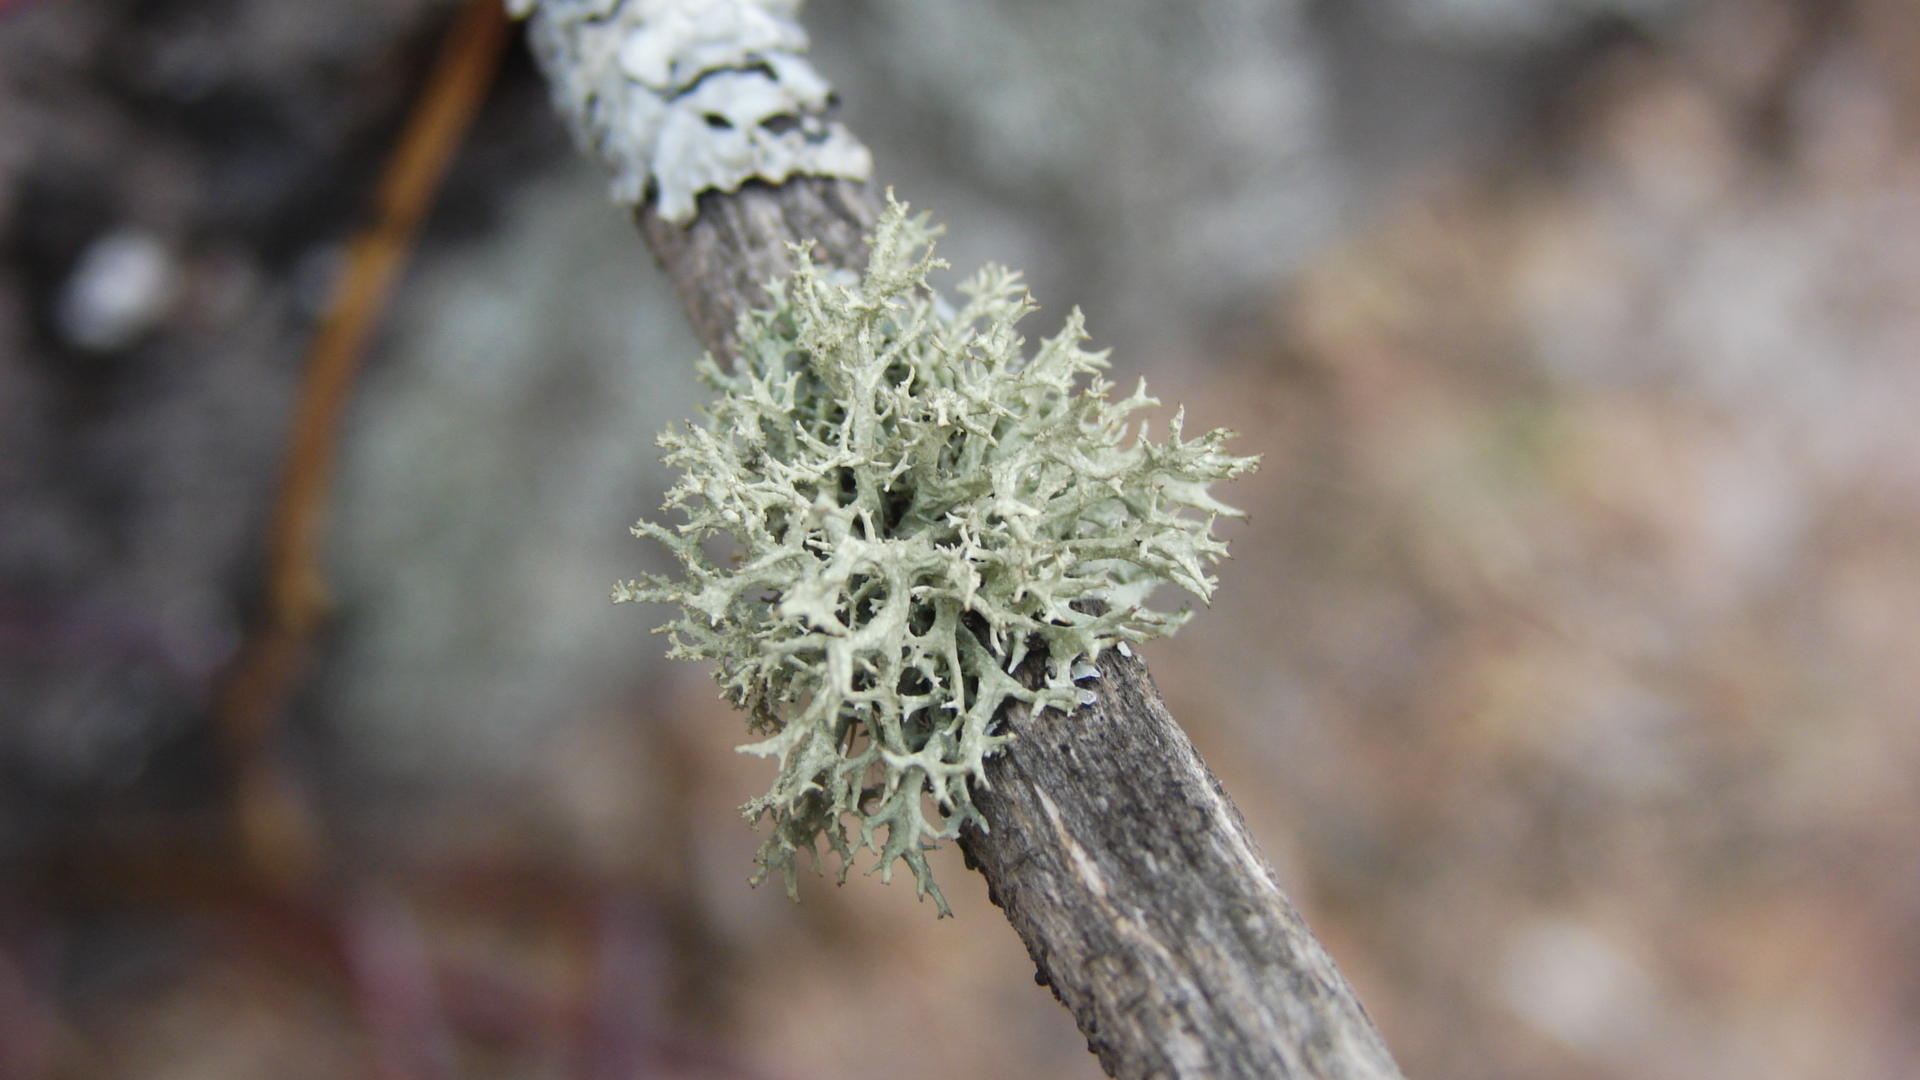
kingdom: Fungi
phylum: Ascomycota
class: Lecanoromycetes
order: Lecanorales
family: Parmeliaceae
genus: Evernia
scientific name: Evernia mesomorpha
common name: Boreal oak moss lichen
